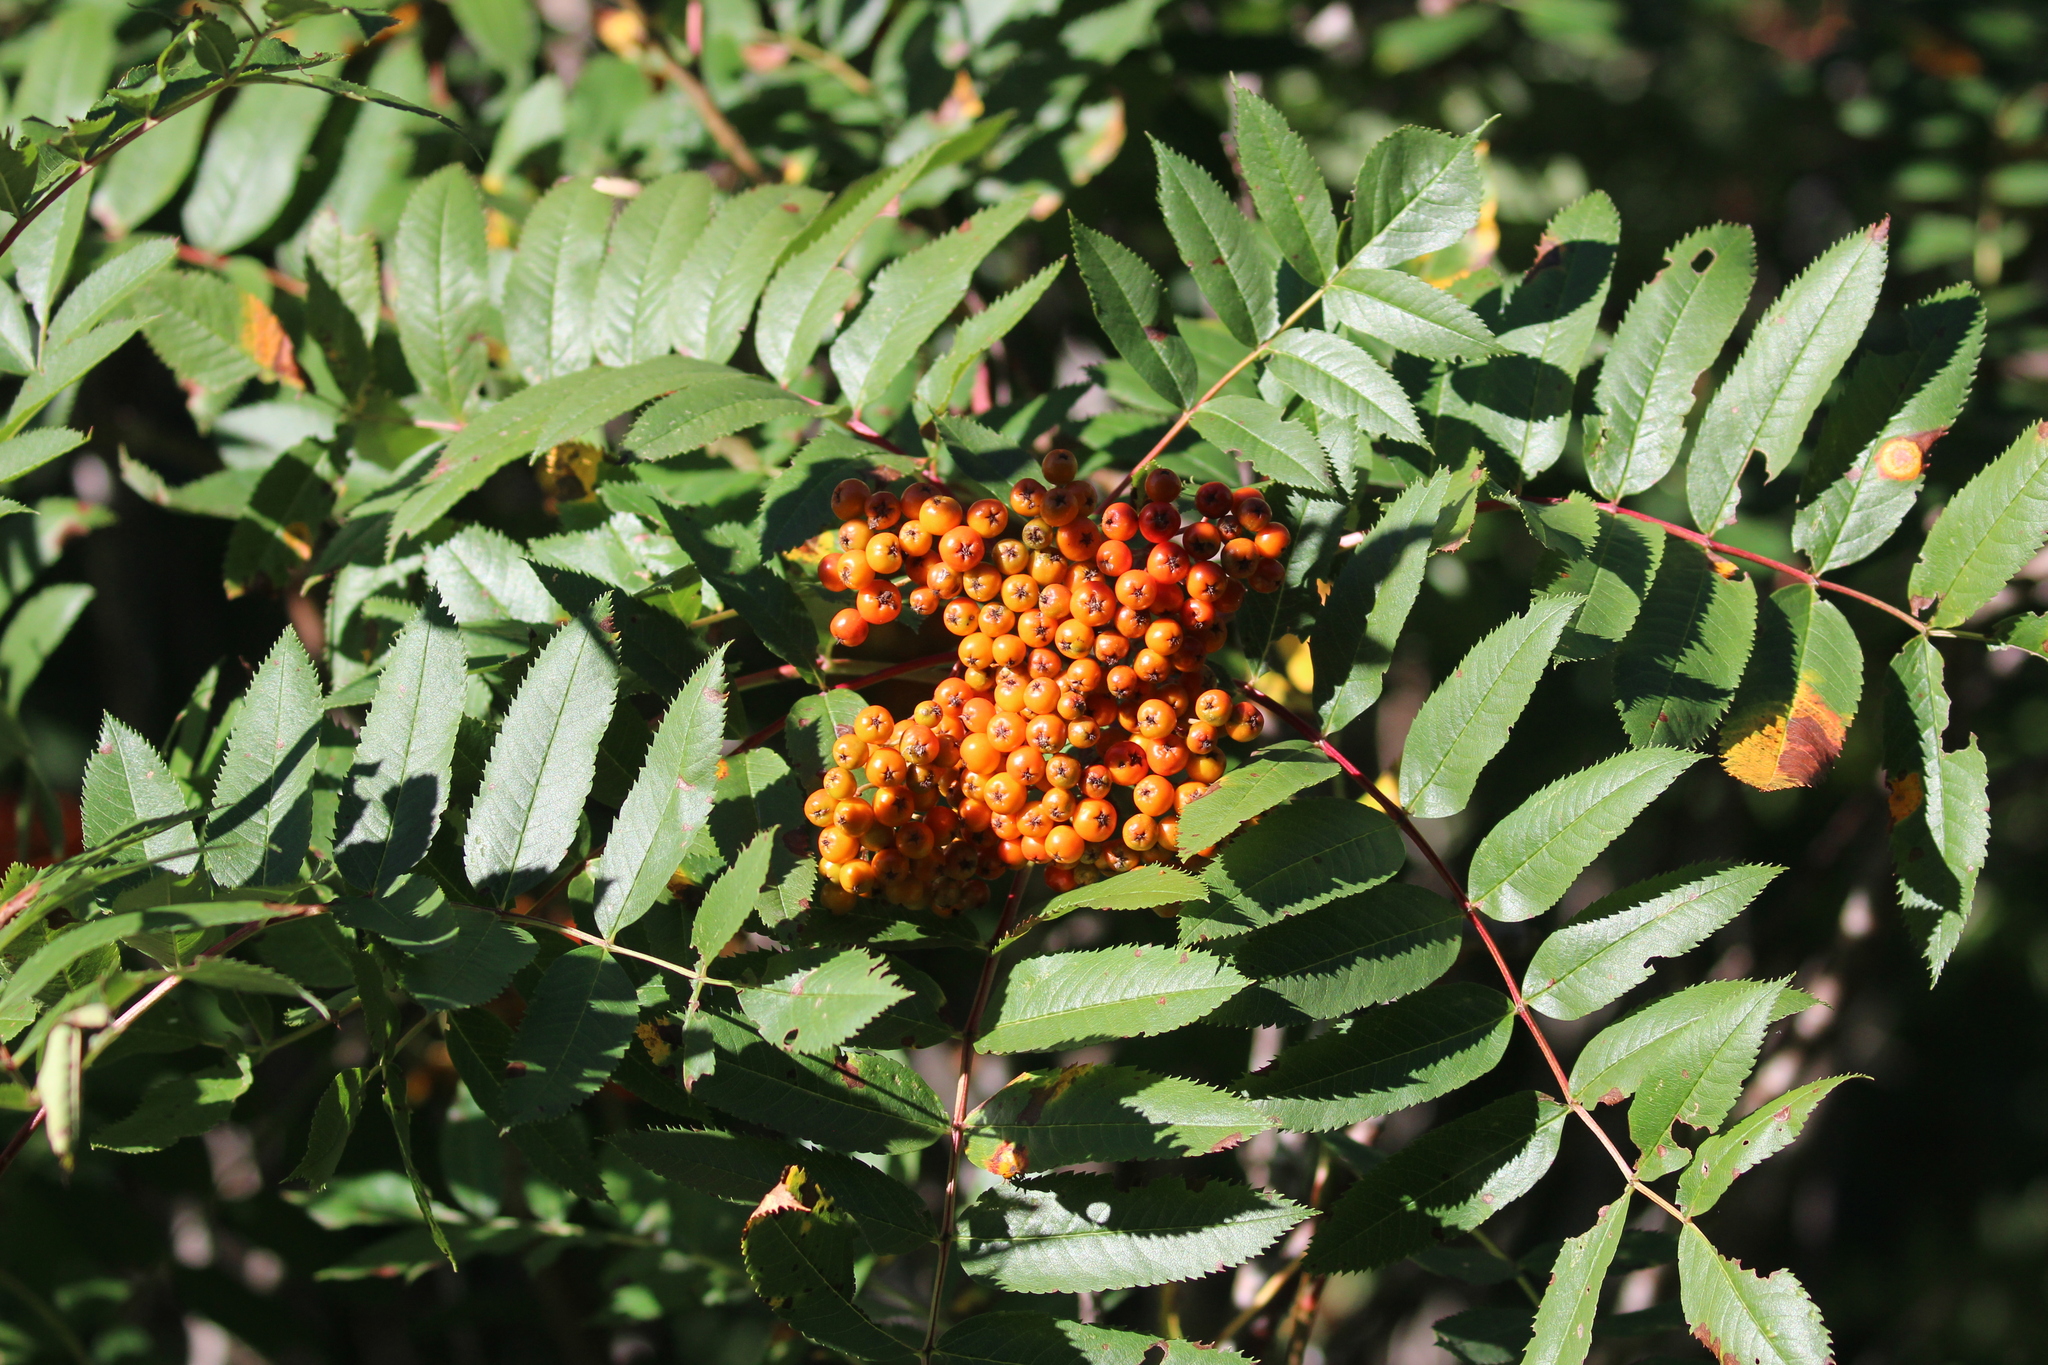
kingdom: Plantae
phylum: Tracheophyta
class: Magnoliopsida
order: Rosales
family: Rosaceae
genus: Sorbus
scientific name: Sorbus americana
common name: American mountain-ash
